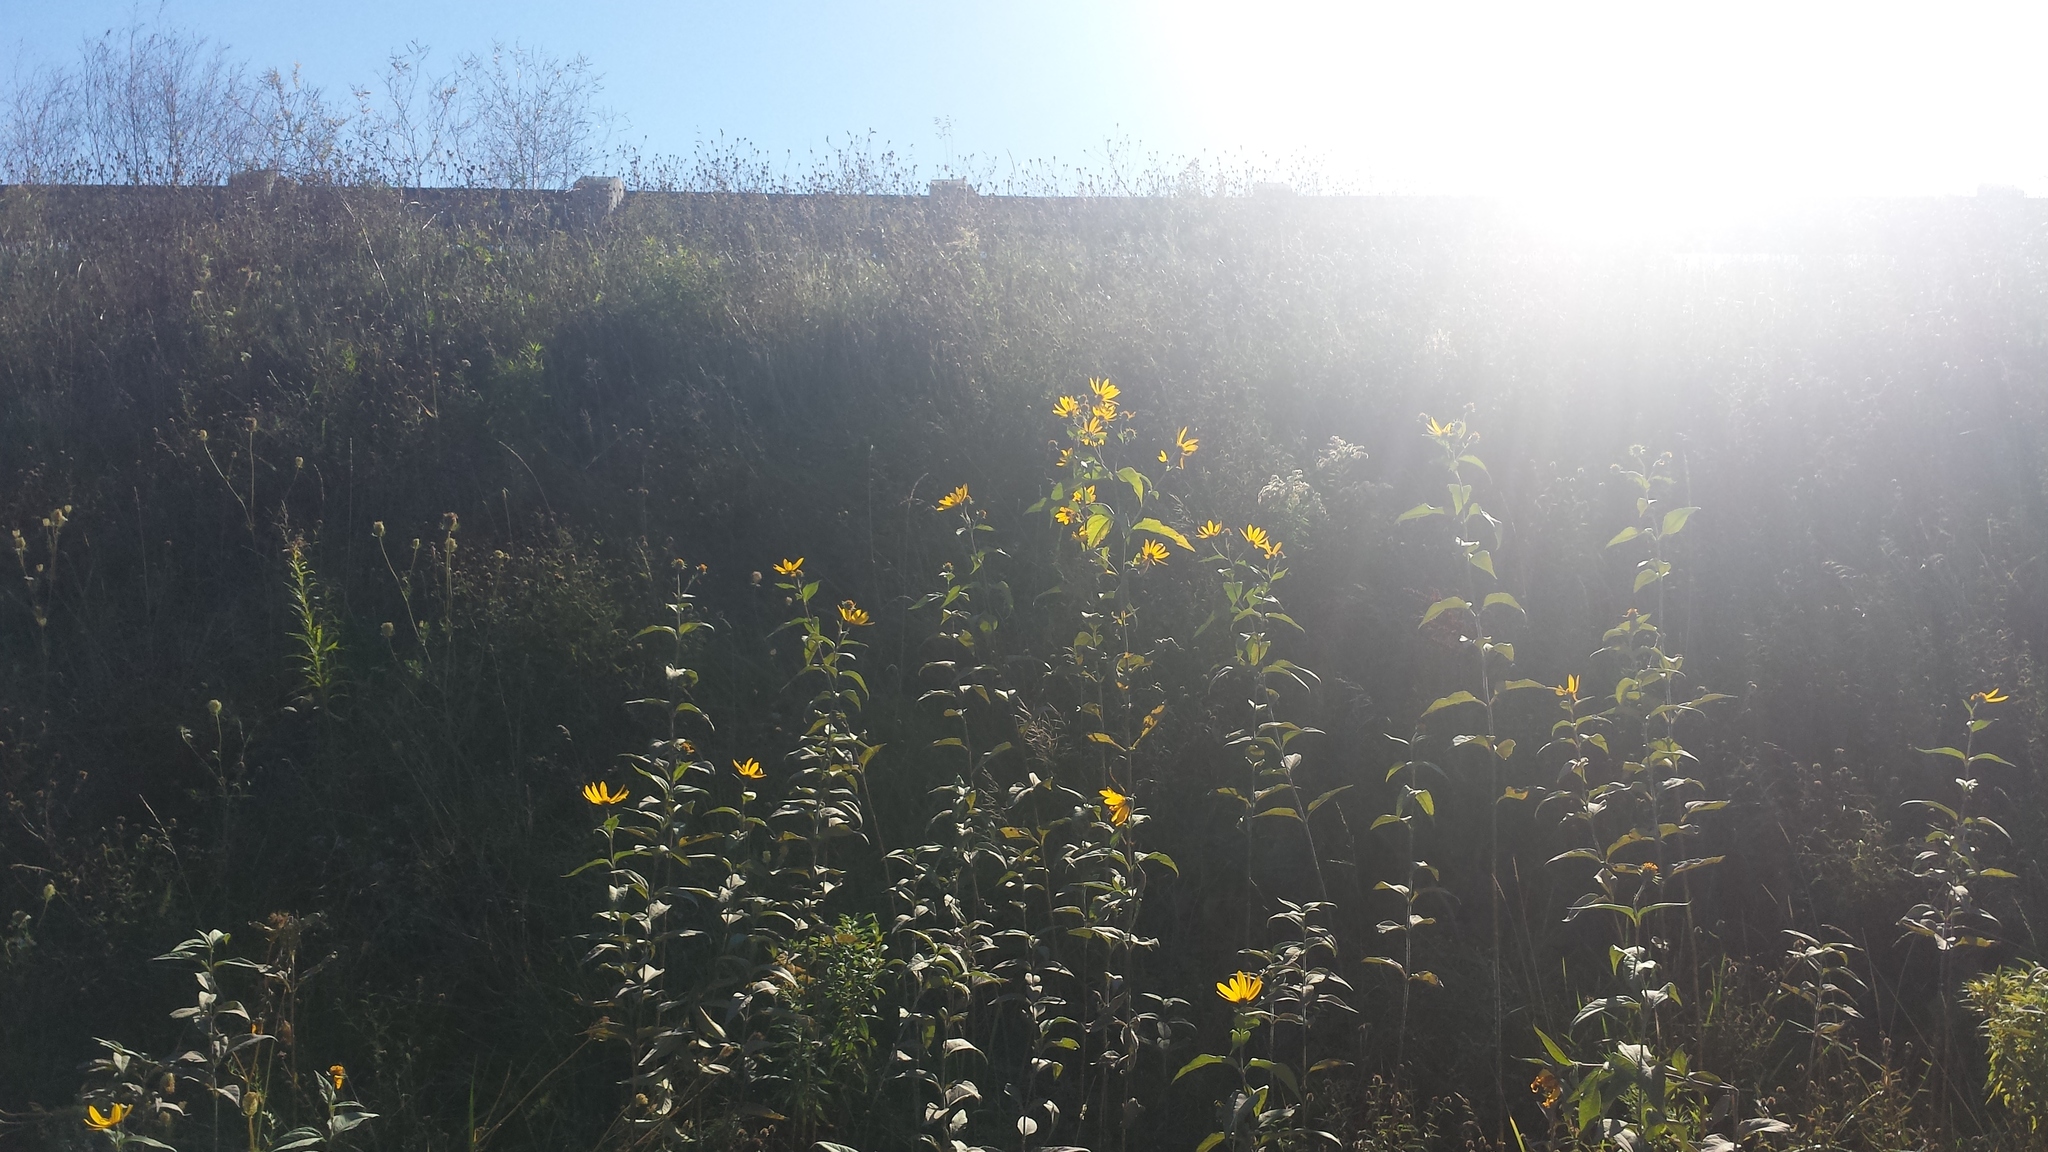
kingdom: Plantae
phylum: Tracheophyta
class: Magnoliopsida
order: Asterales
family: Asteraceae
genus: Helianthus
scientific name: Helianthus laetiflorus
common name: Perennial sunflower
